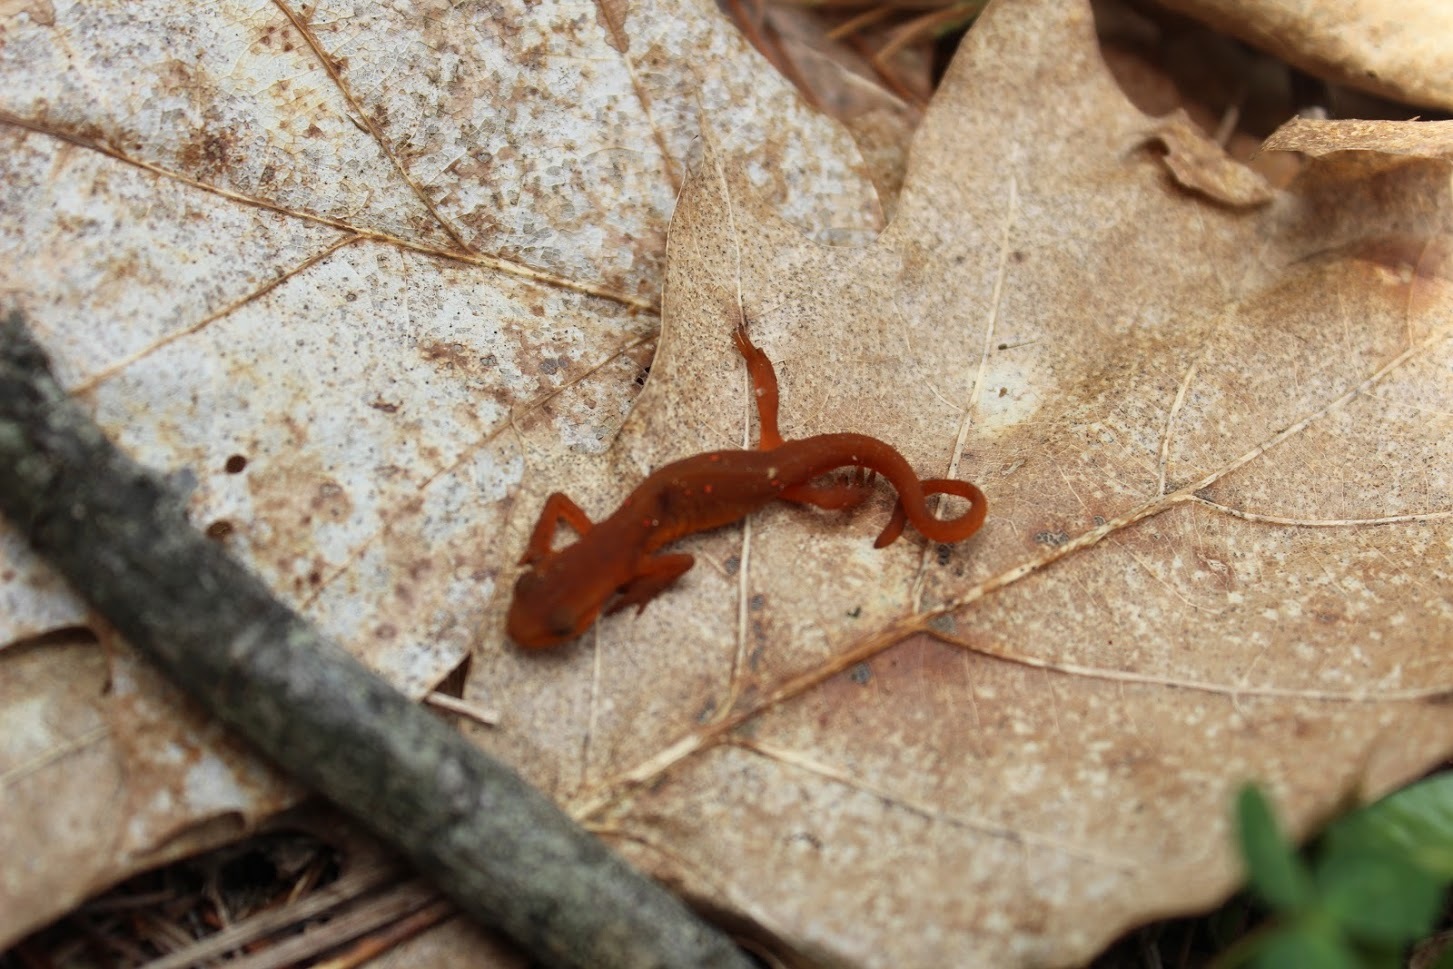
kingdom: Animalia
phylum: Chordata
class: Amphibia
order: Caudata
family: Salamandridae
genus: Notophthalmus
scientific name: Notophthalmus viridescens
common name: Eastern newt
